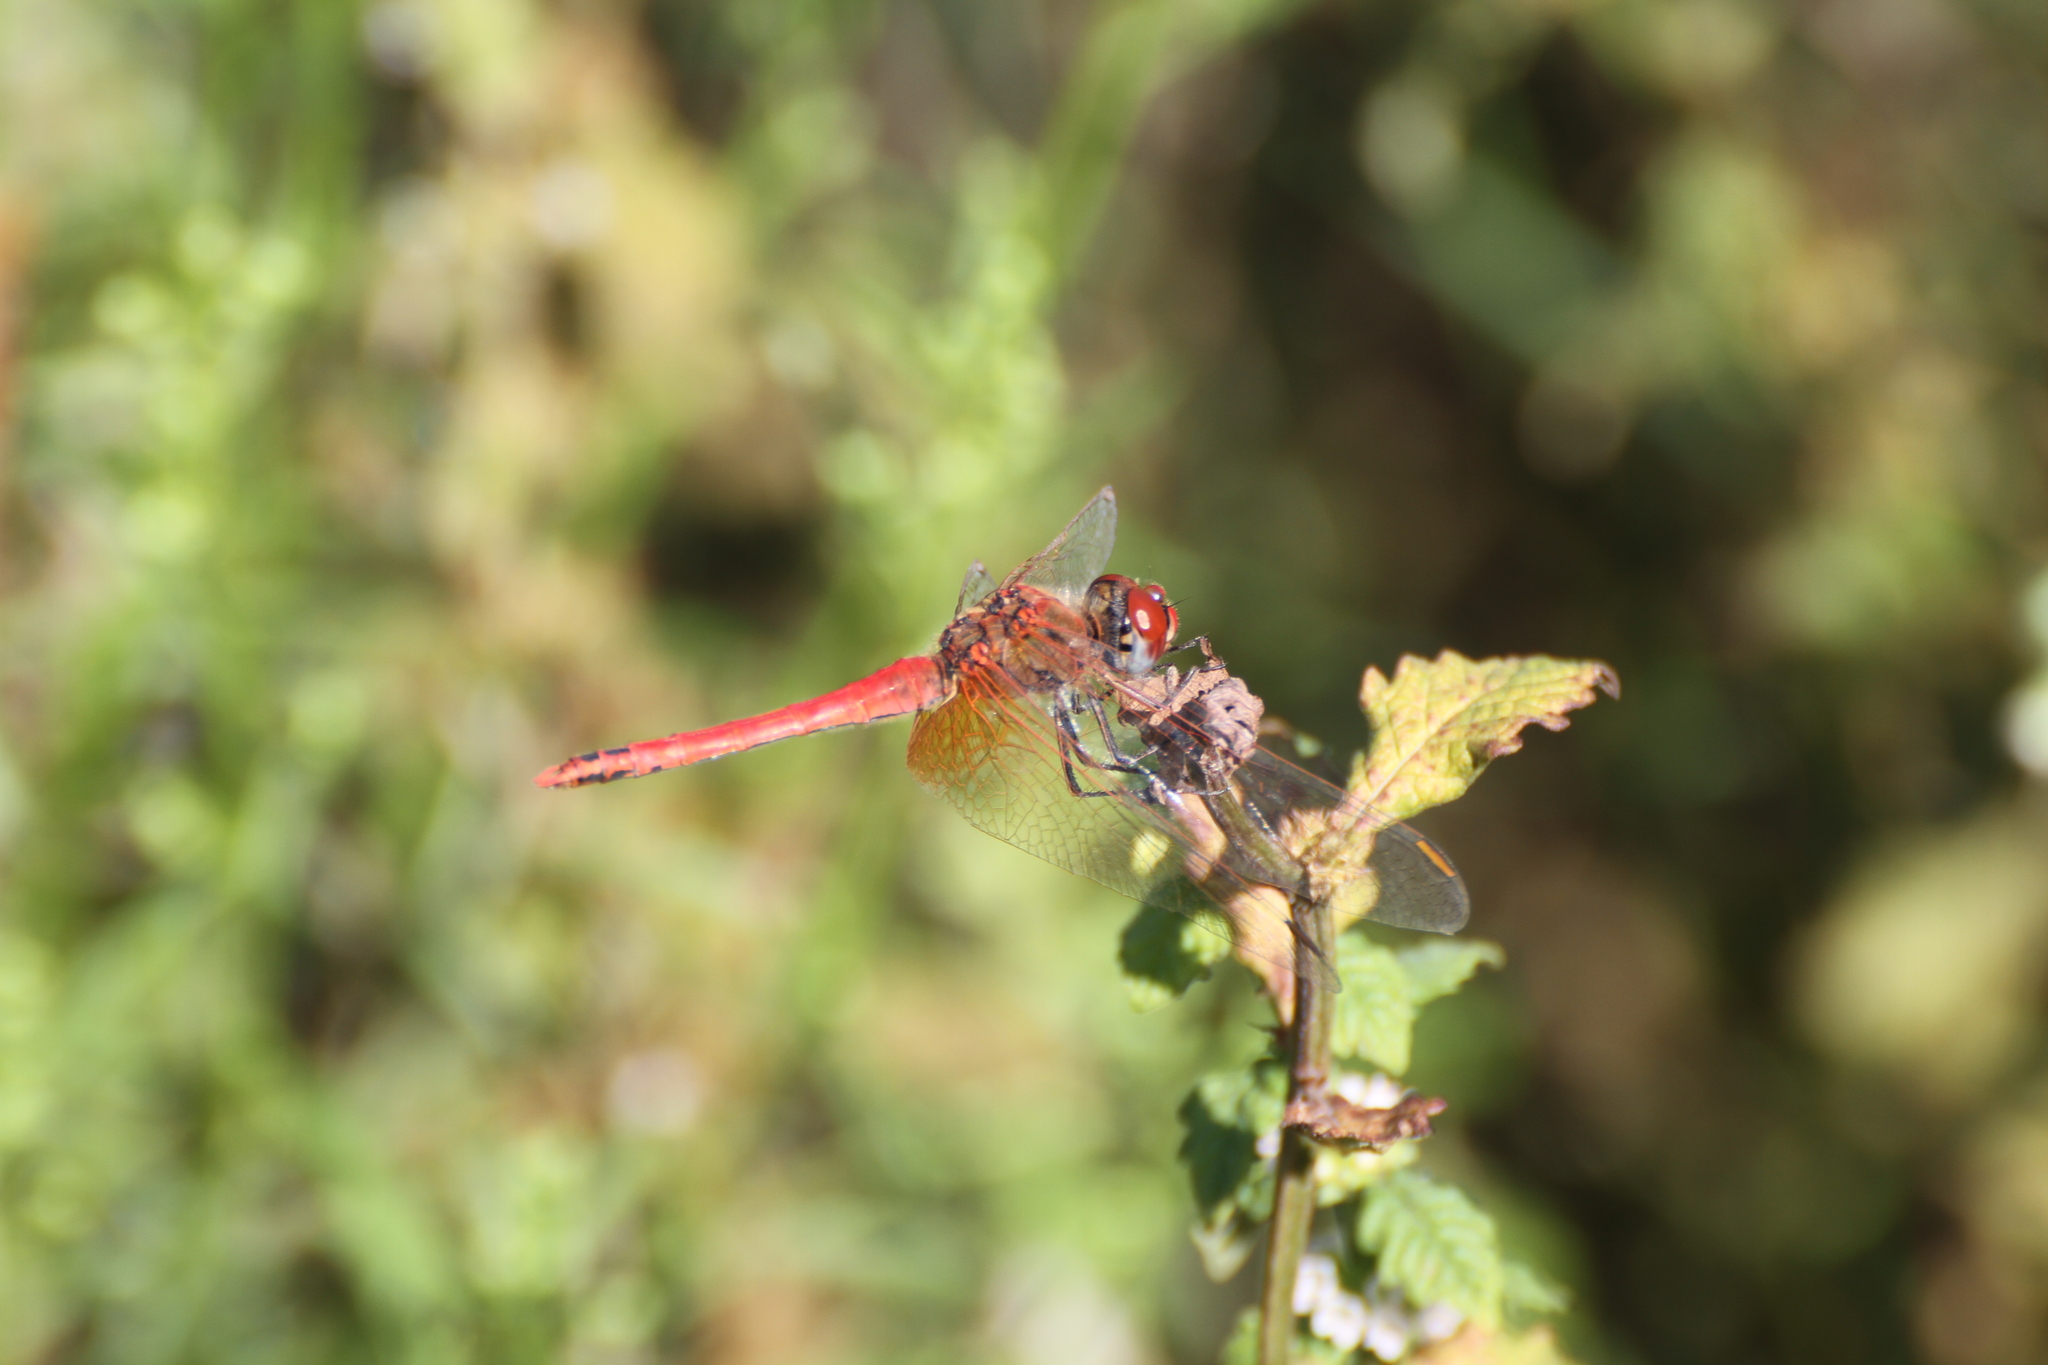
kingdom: Animalia
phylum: Arthropoda
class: Insecta
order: Odonata
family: Libellulidae
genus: Sympetrum
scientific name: Sympetrum fonscolombii
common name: Red-veined darter
